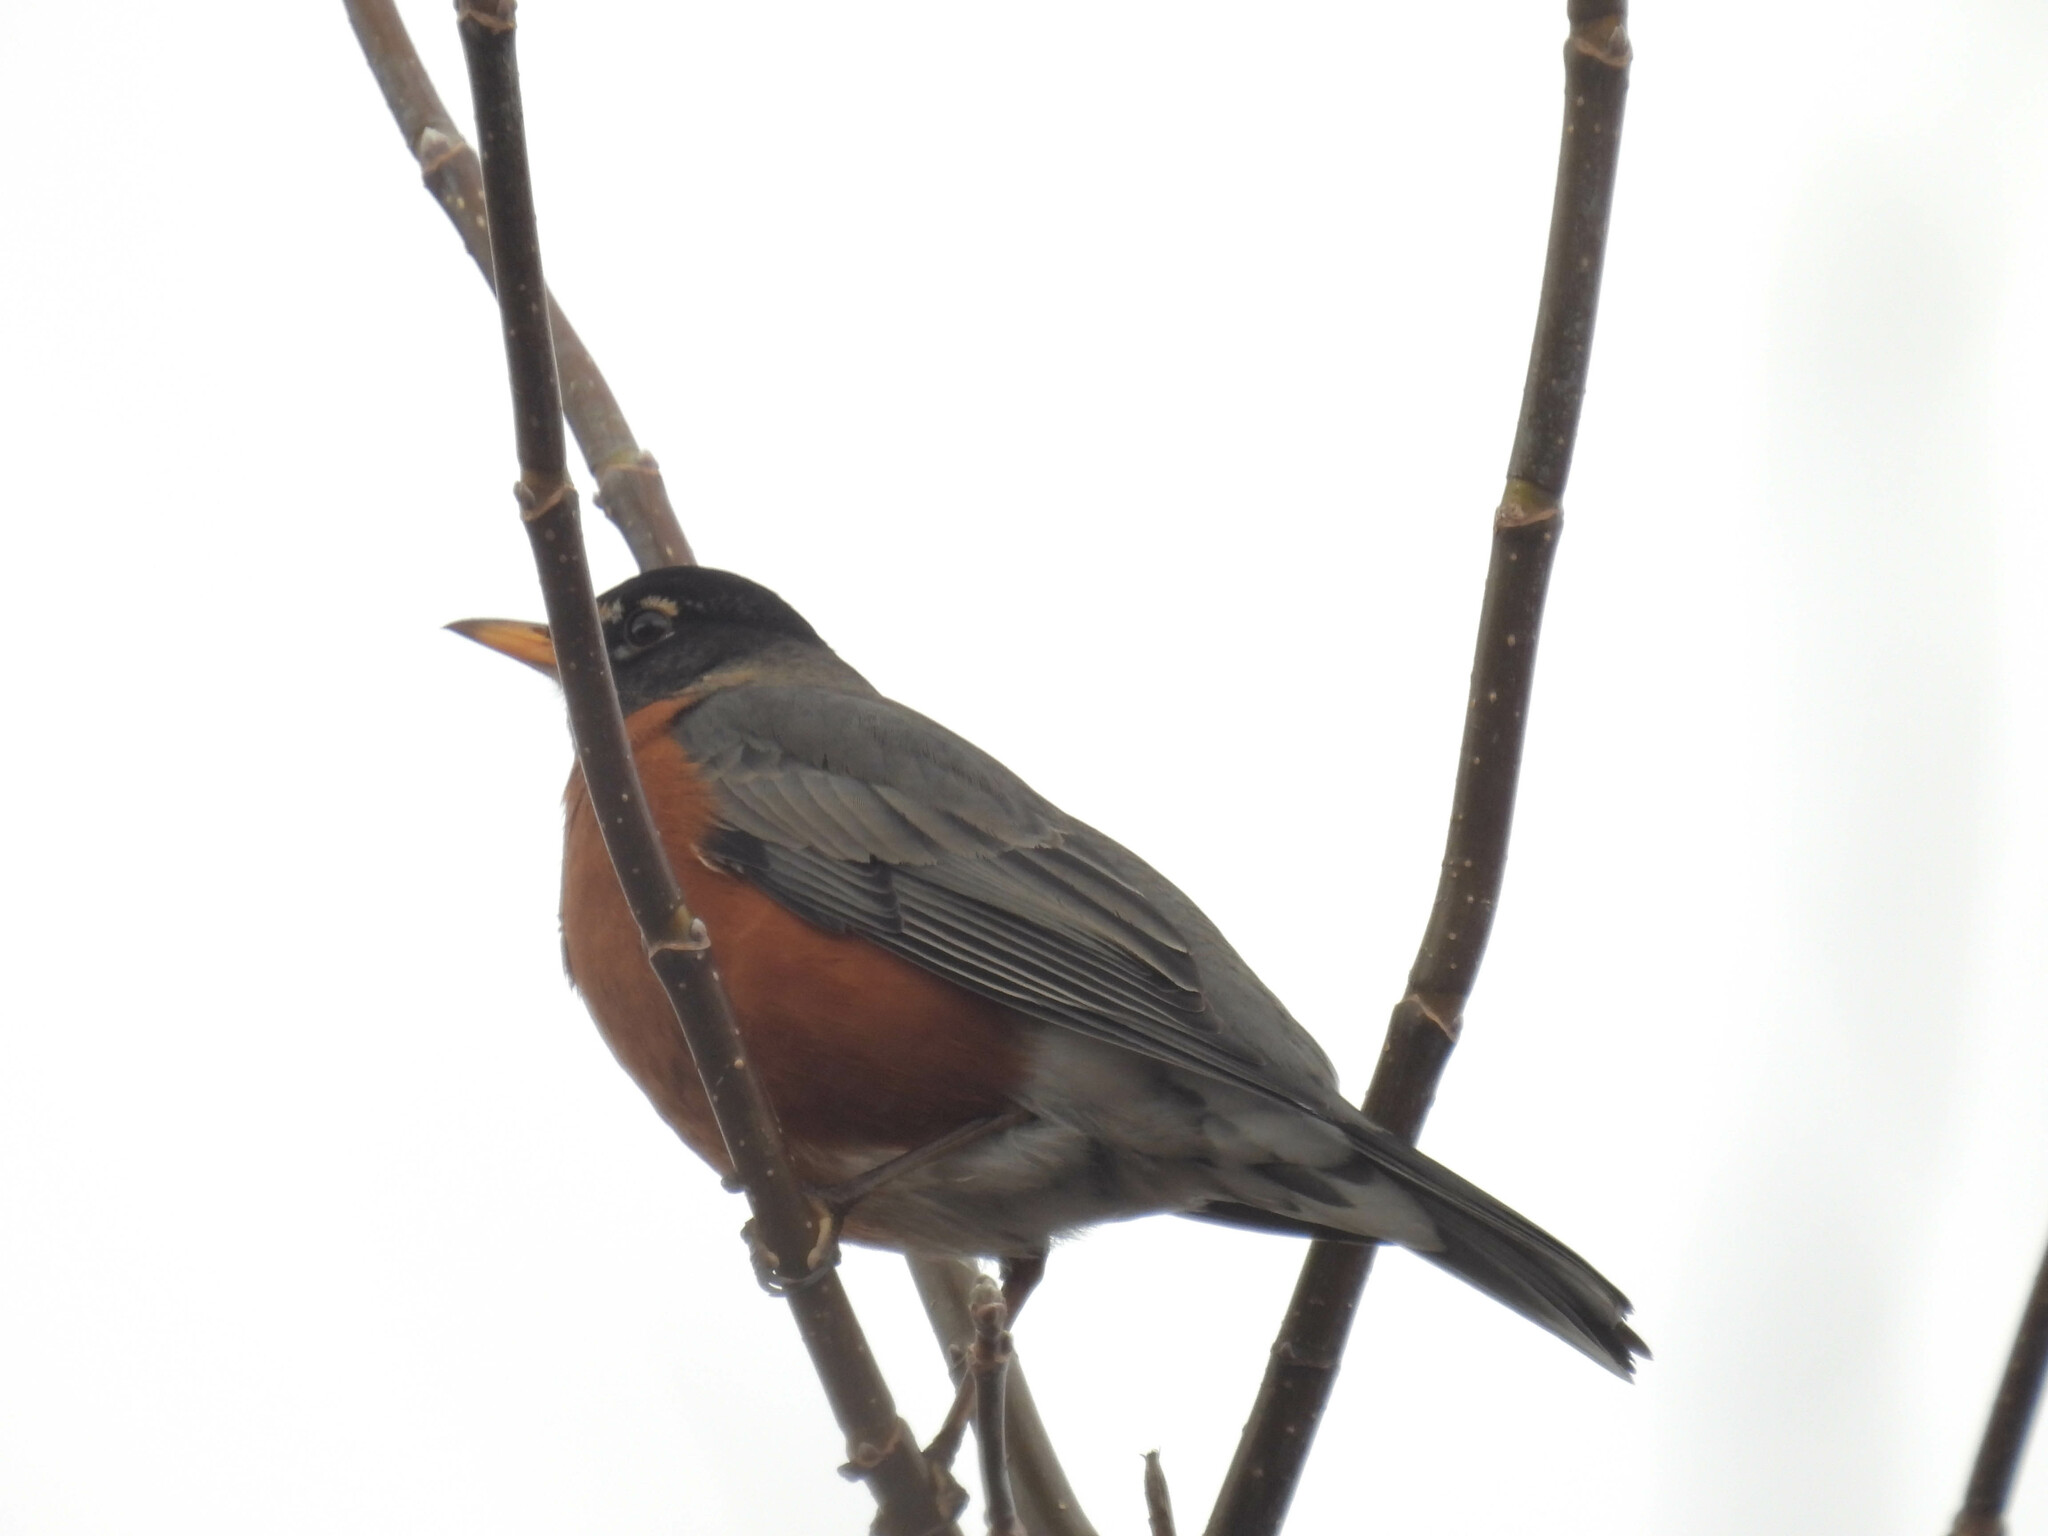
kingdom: Animalia
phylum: Chordata
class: Aves
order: Passeriformes
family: Turdidae
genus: Turdus
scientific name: Turdus migratorius
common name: American robin
